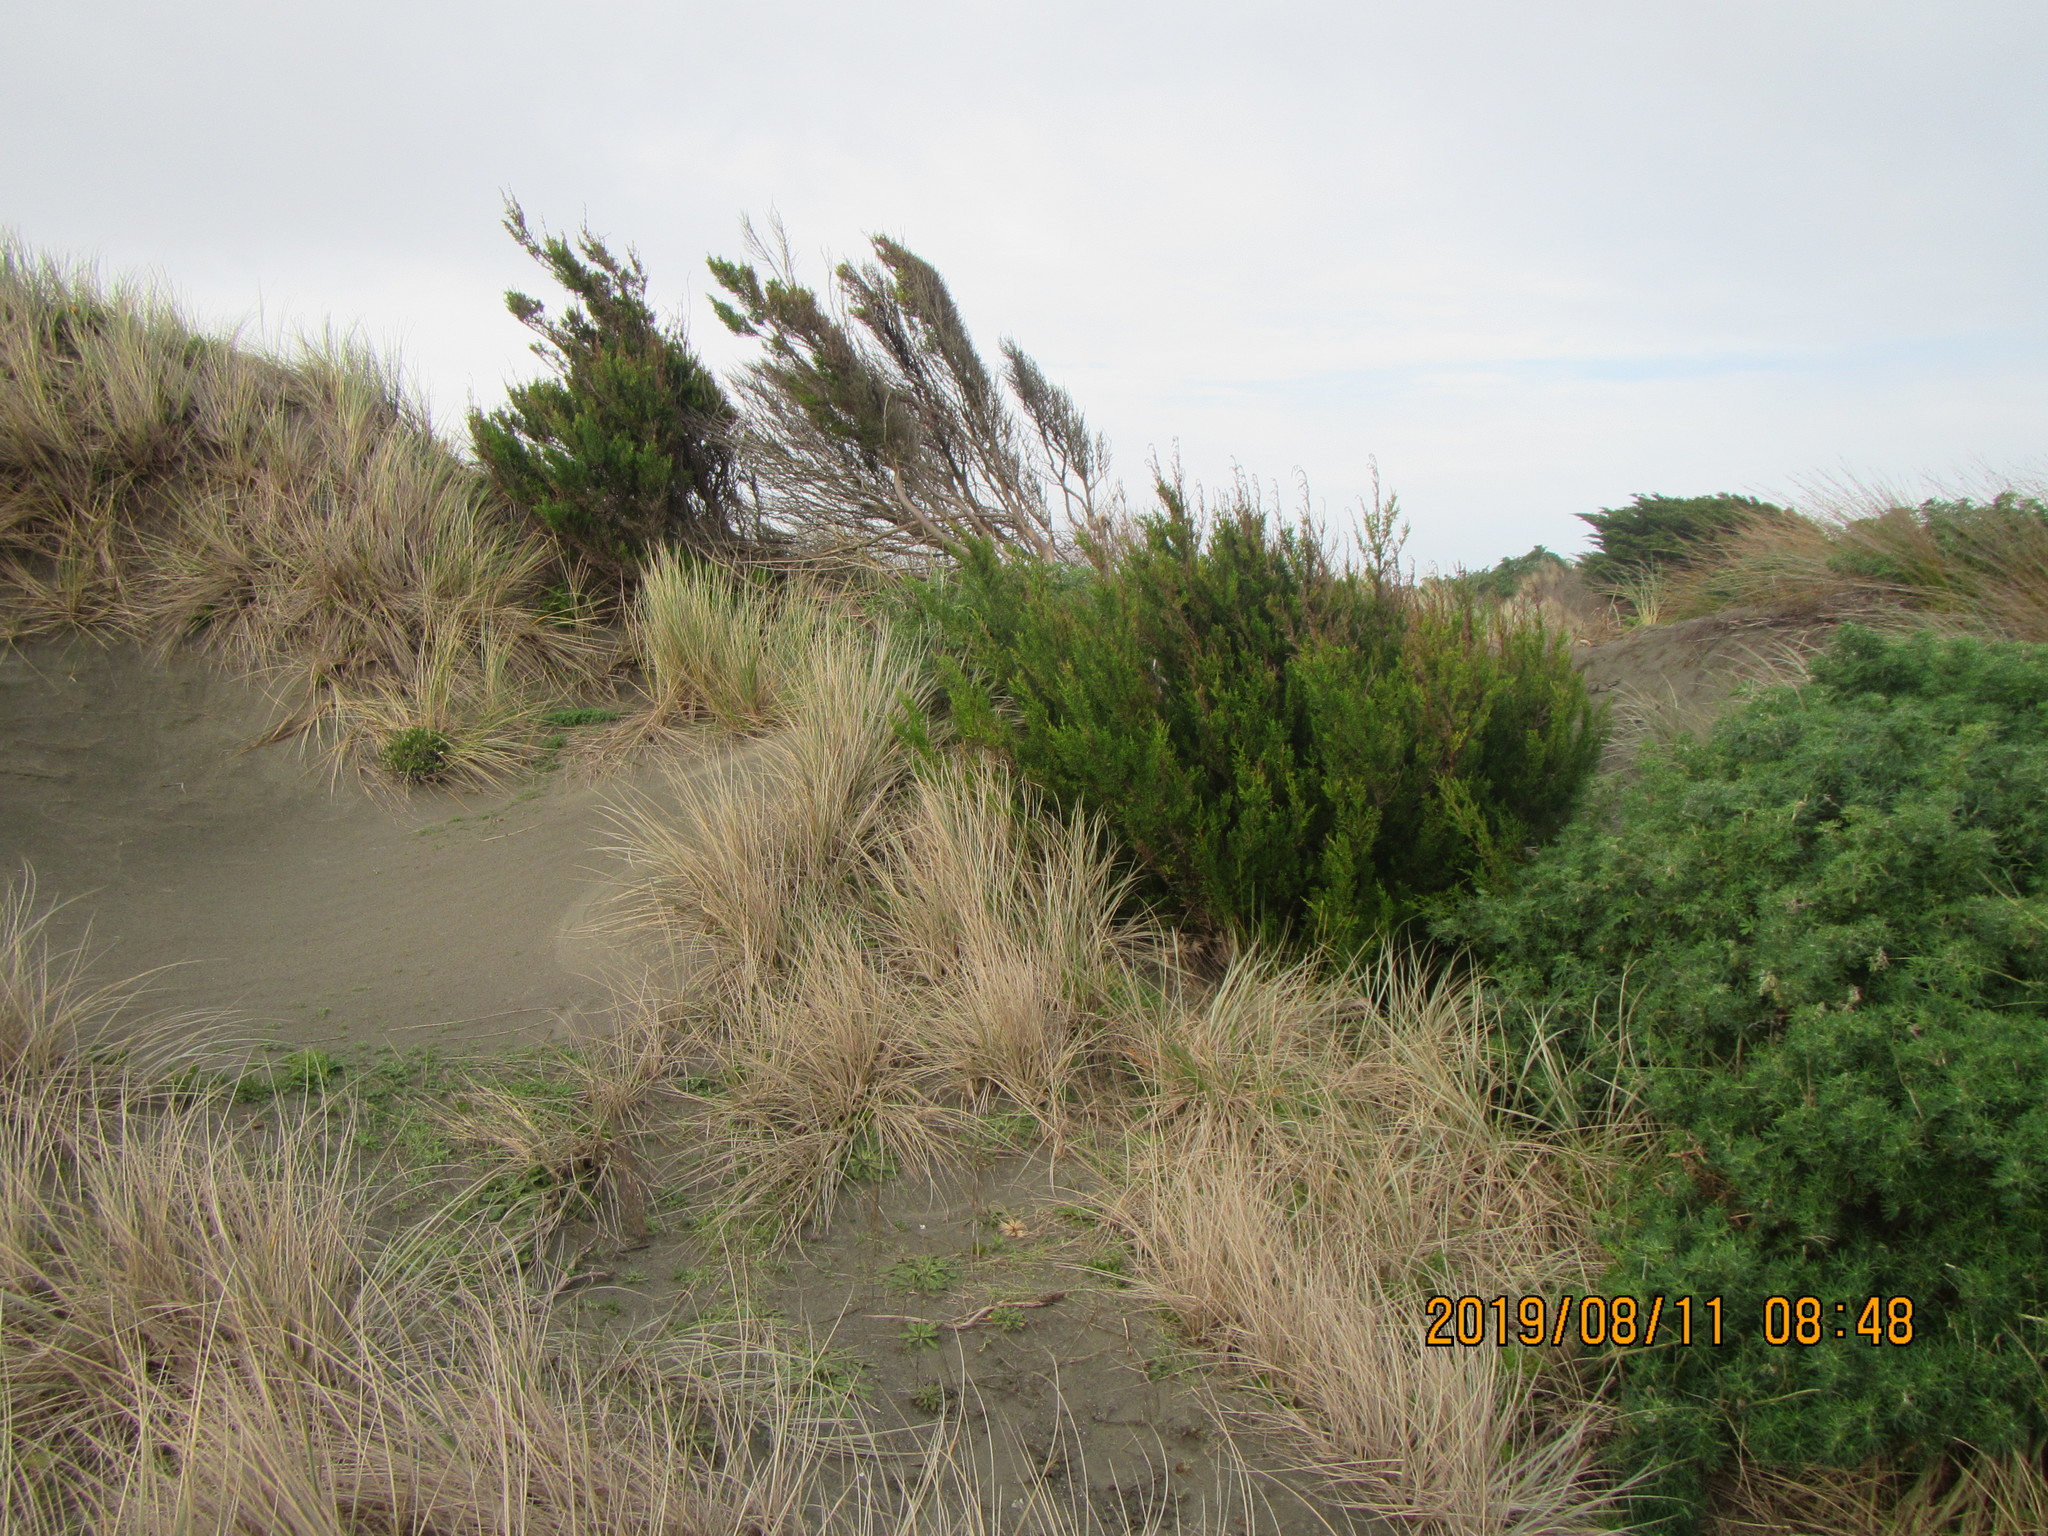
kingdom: Plantae
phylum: Tracheophyta
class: Pinopsida
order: Pinales
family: Cupressaceae
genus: Cupressus
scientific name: Cupressus macrocarpa
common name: Monterey cypress
